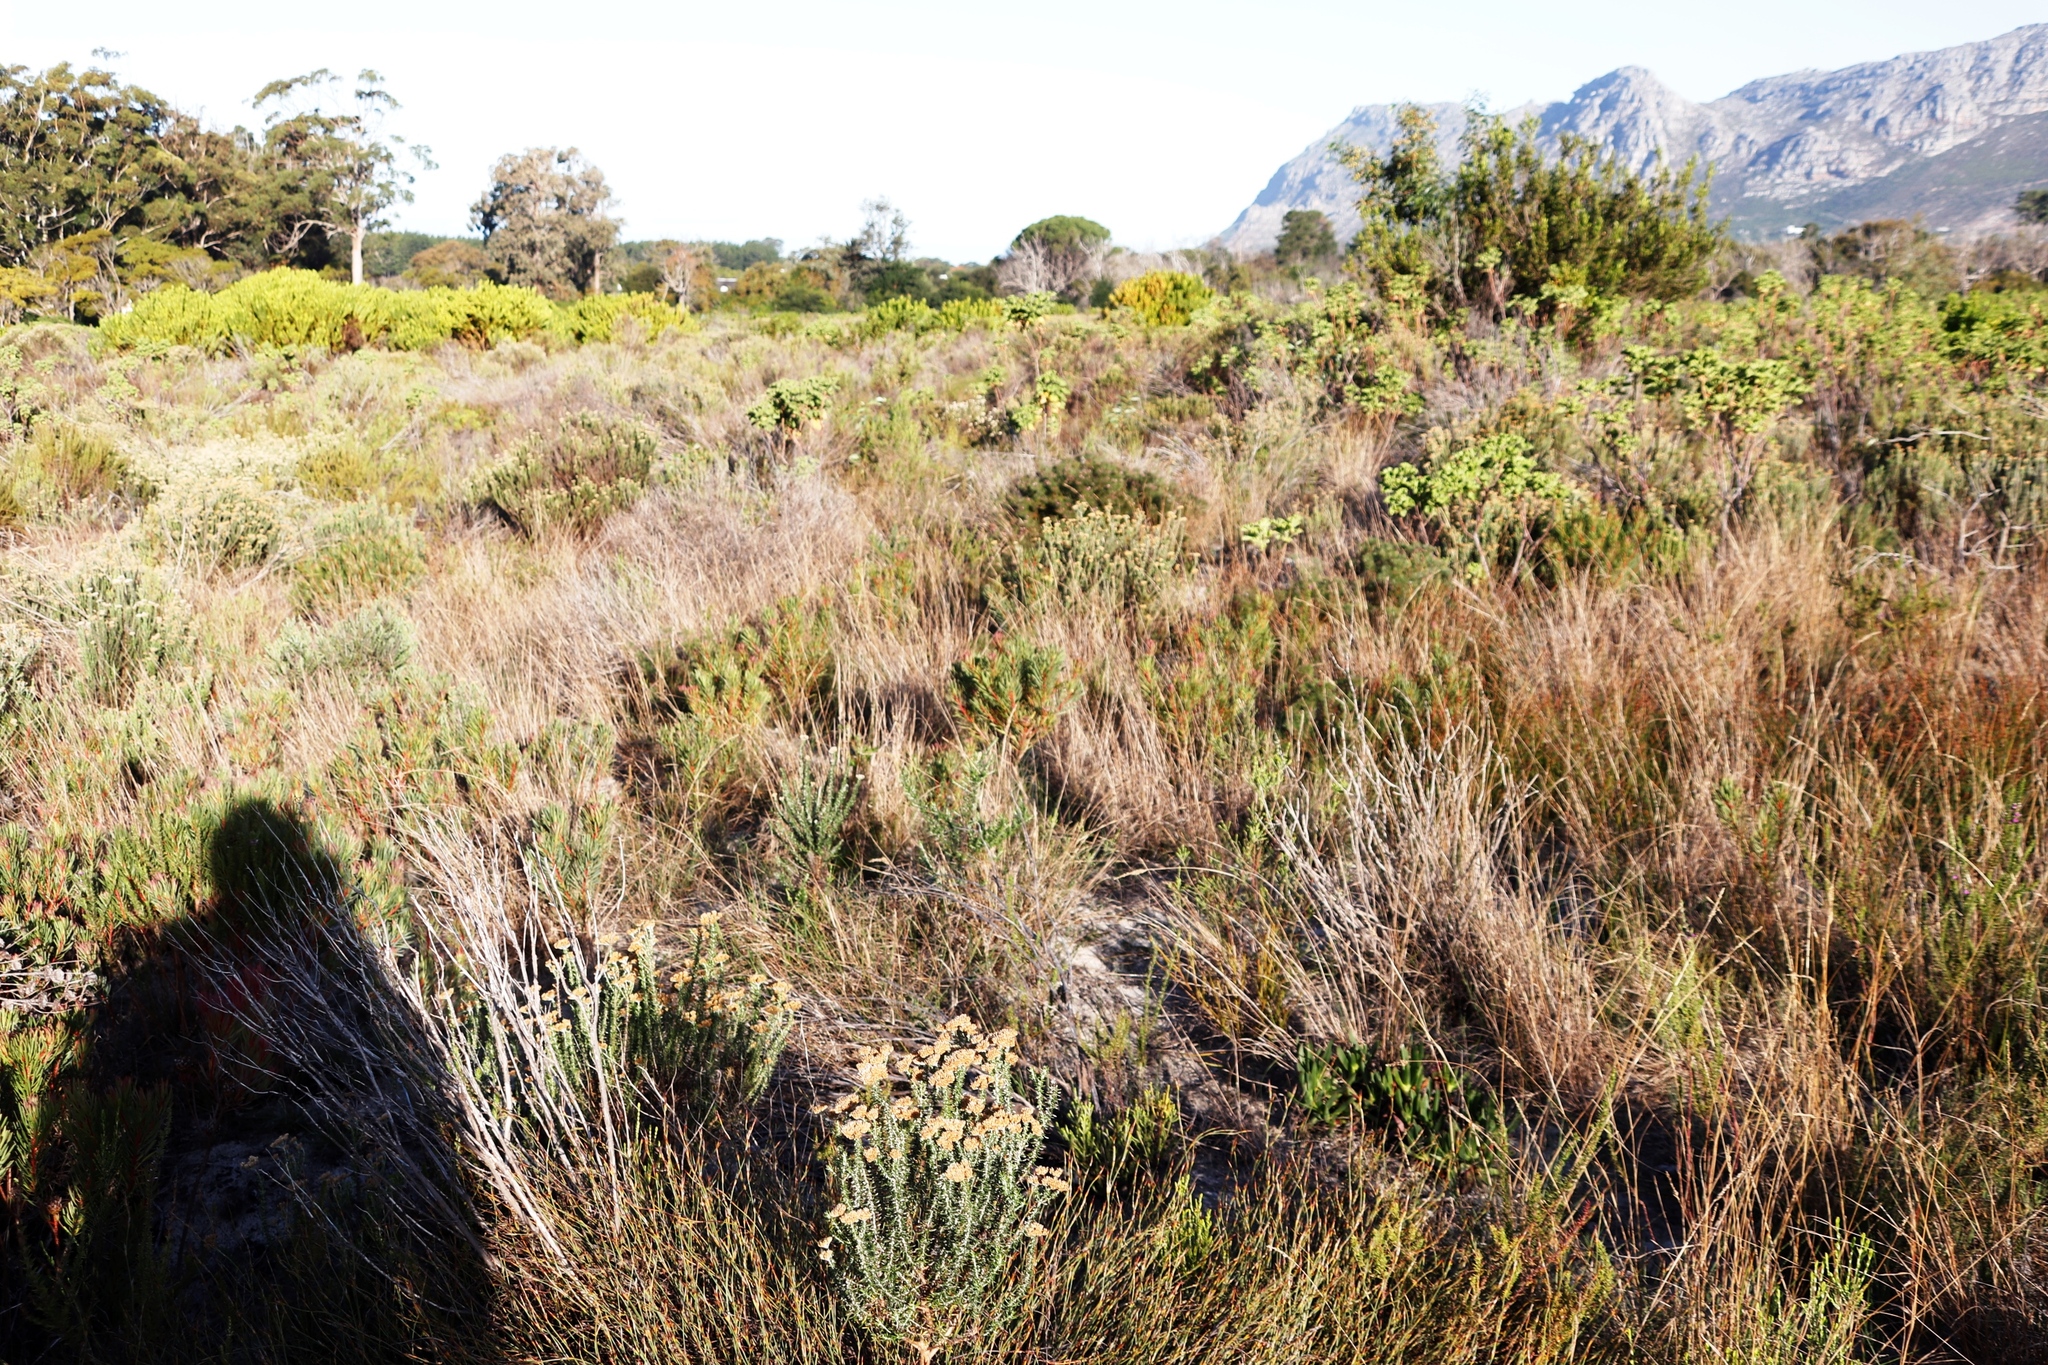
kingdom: Plantae
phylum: Tracheophyta
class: Magnoliopsida
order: Proteales
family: Proteaceae
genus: Protea
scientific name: Protea scolymocephala
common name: Thistle sugarbush
